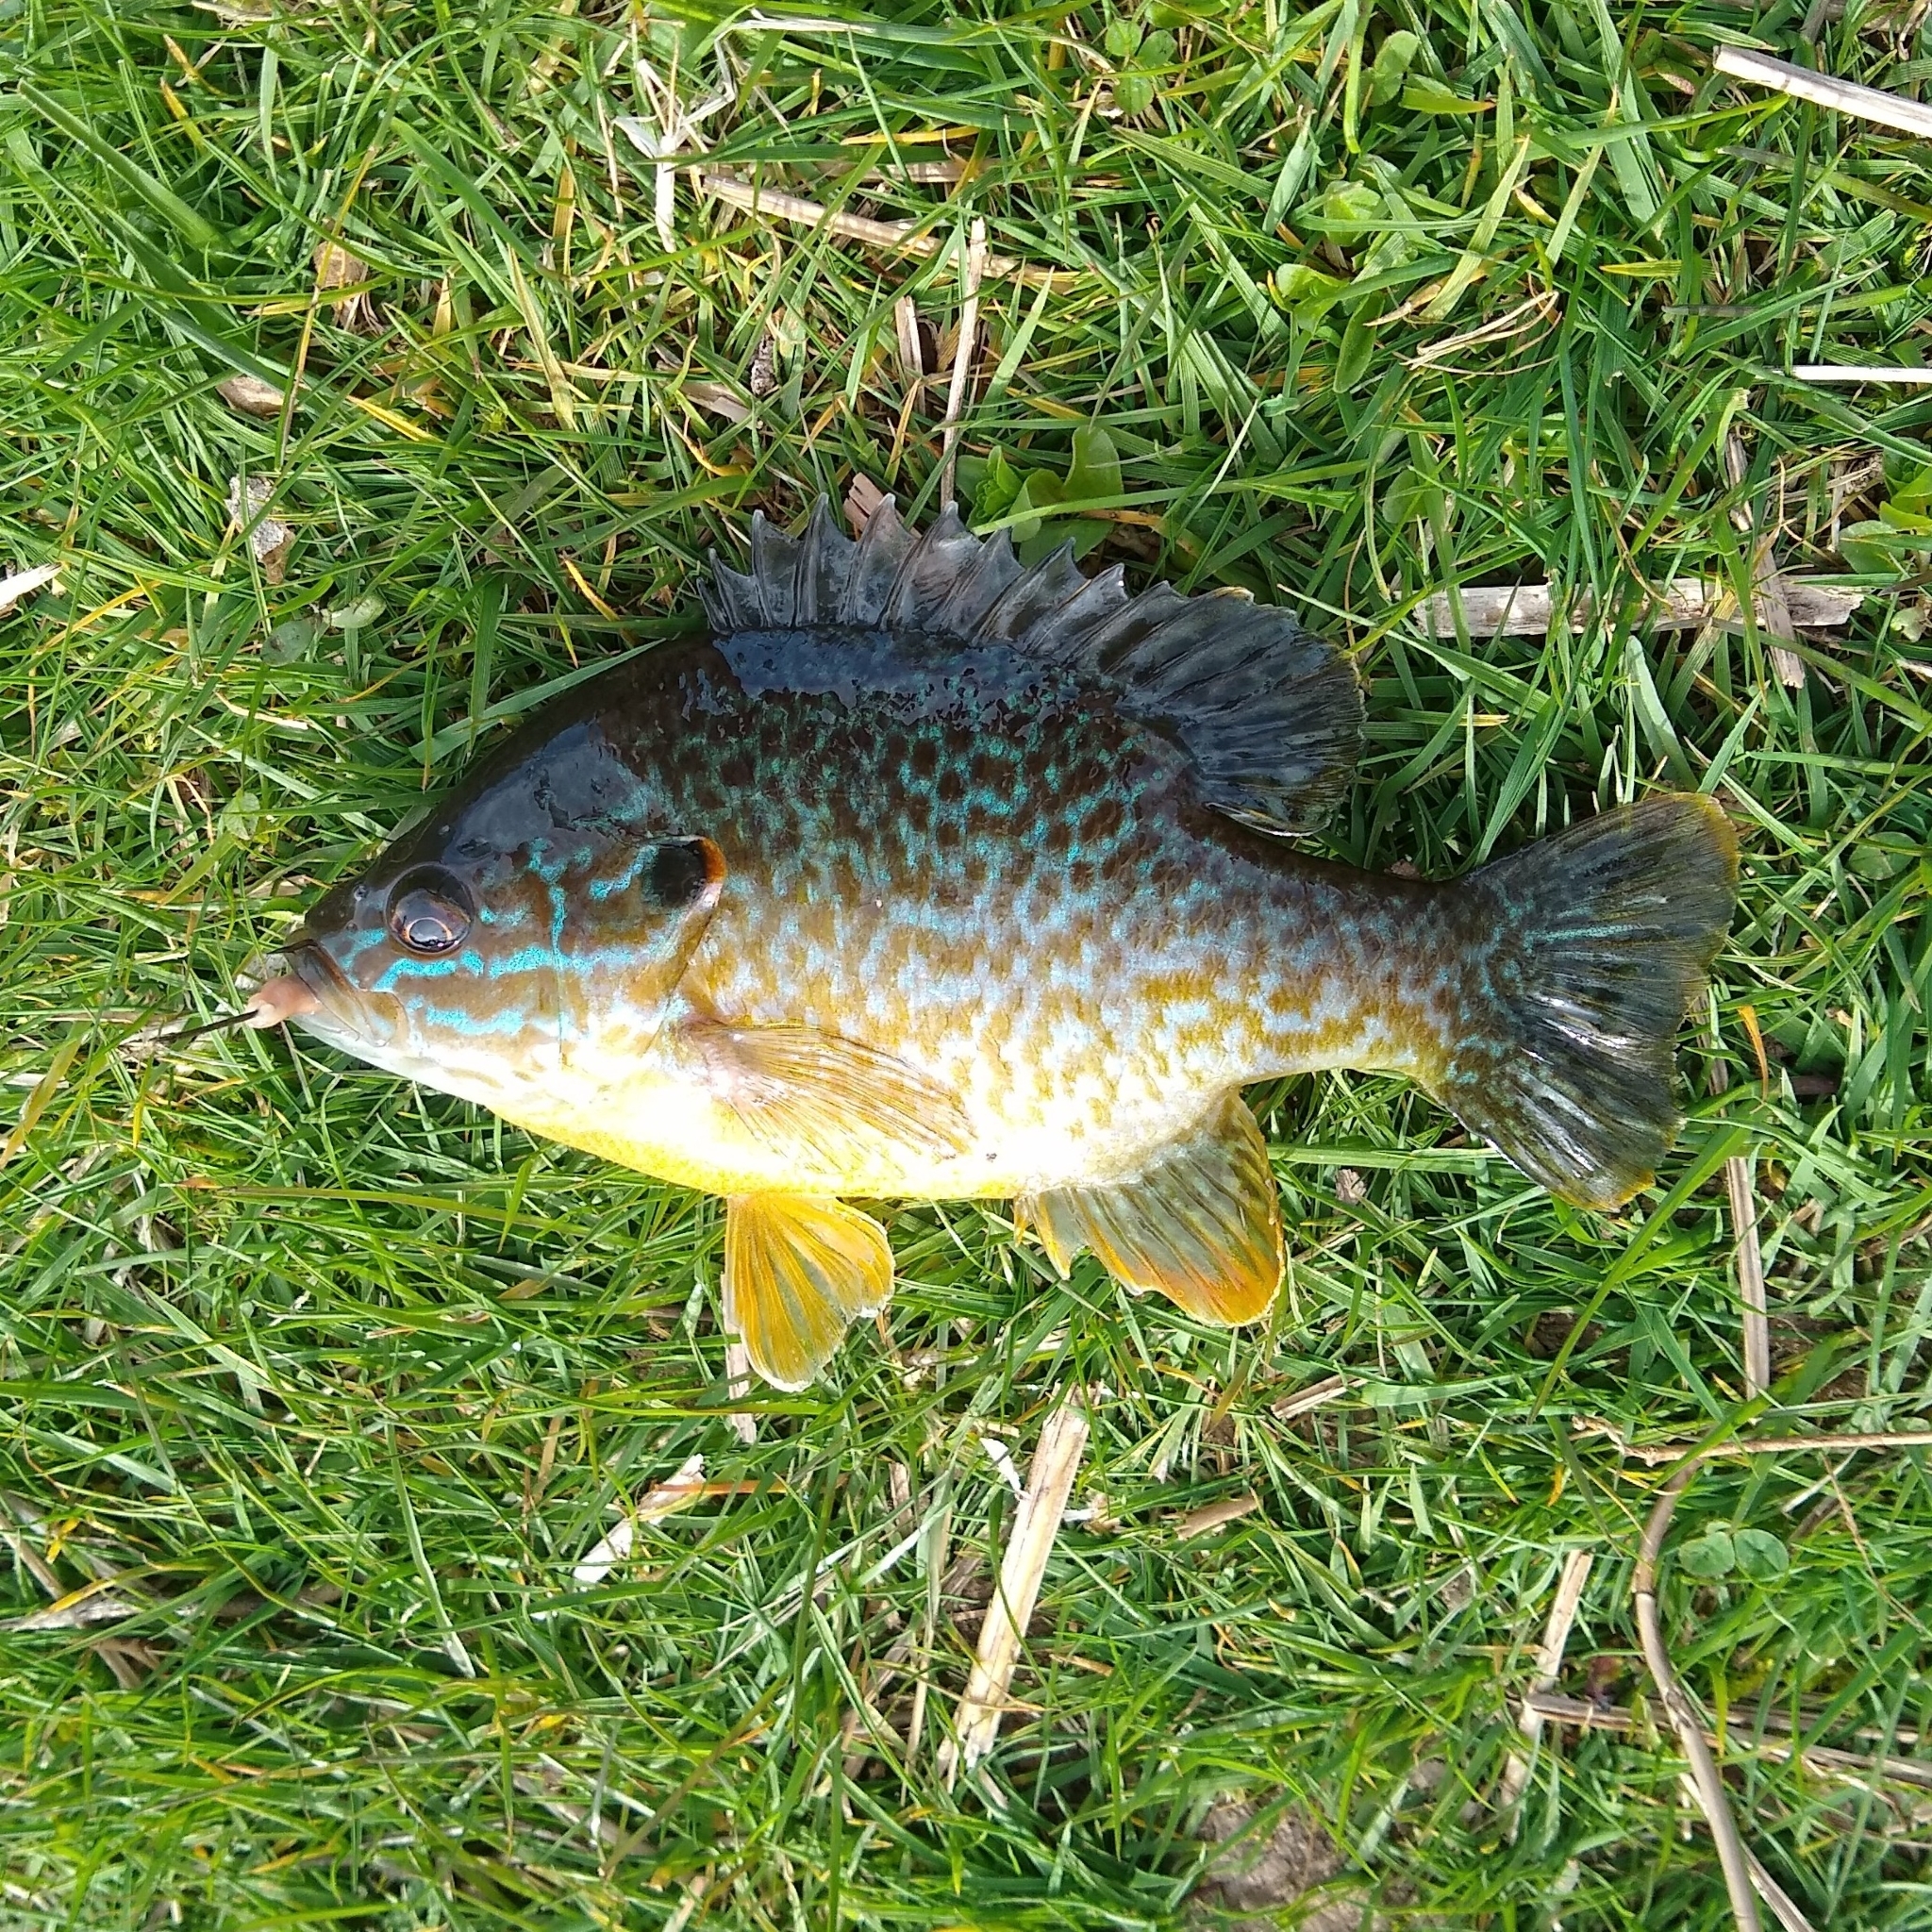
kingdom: Animalia
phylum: Chordata
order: Perciformes
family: Centrarchidae
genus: Lepomis
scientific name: Lepomis
